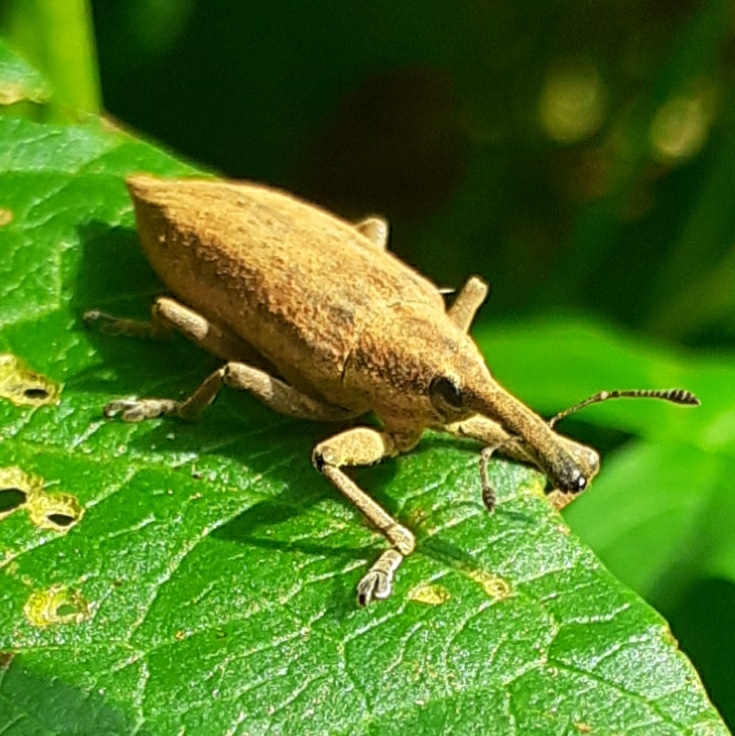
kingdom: Animalia
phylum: Arthropoda
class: Insecta
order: Coleoptera
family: Curculionidae
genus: Lixus
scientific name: Lixus iridis
